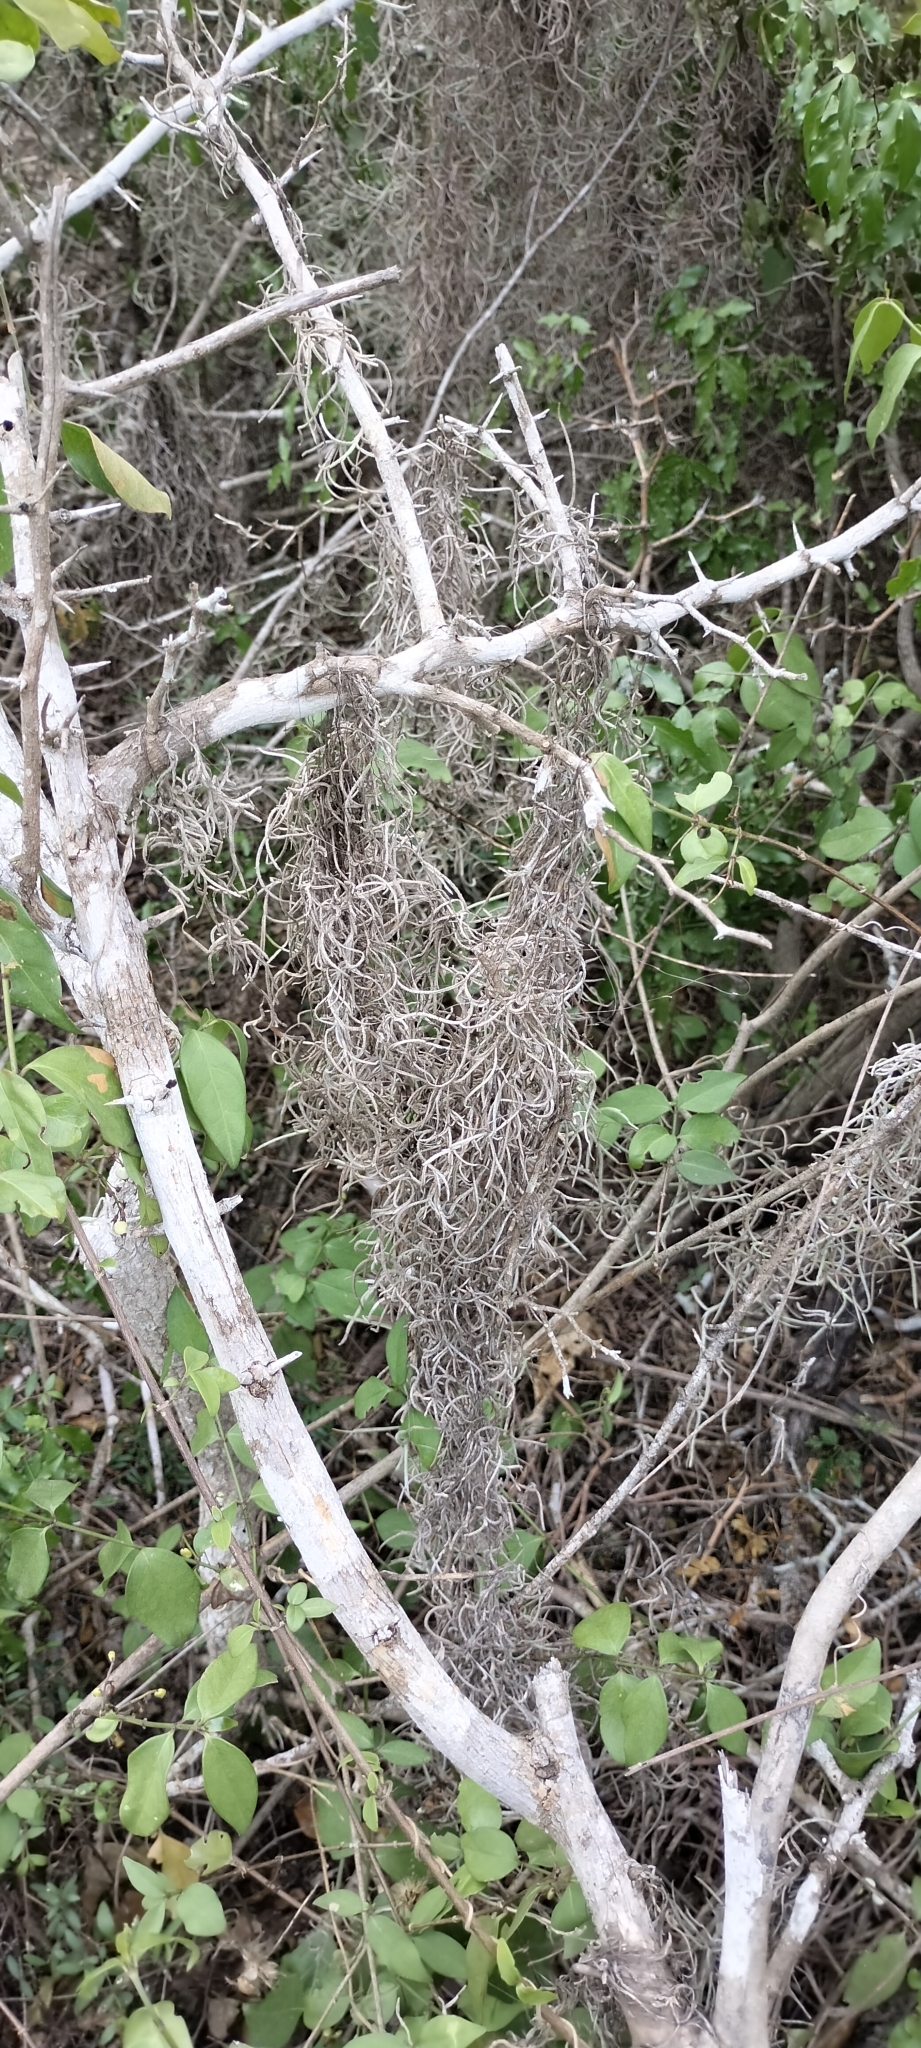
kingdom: Plantae
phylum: Tracheophyta
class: Liliopsida
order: Poales
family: Bromeliaceae
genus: Tillandsia
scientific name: Tillandsia usneoides
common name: Spanish moss
